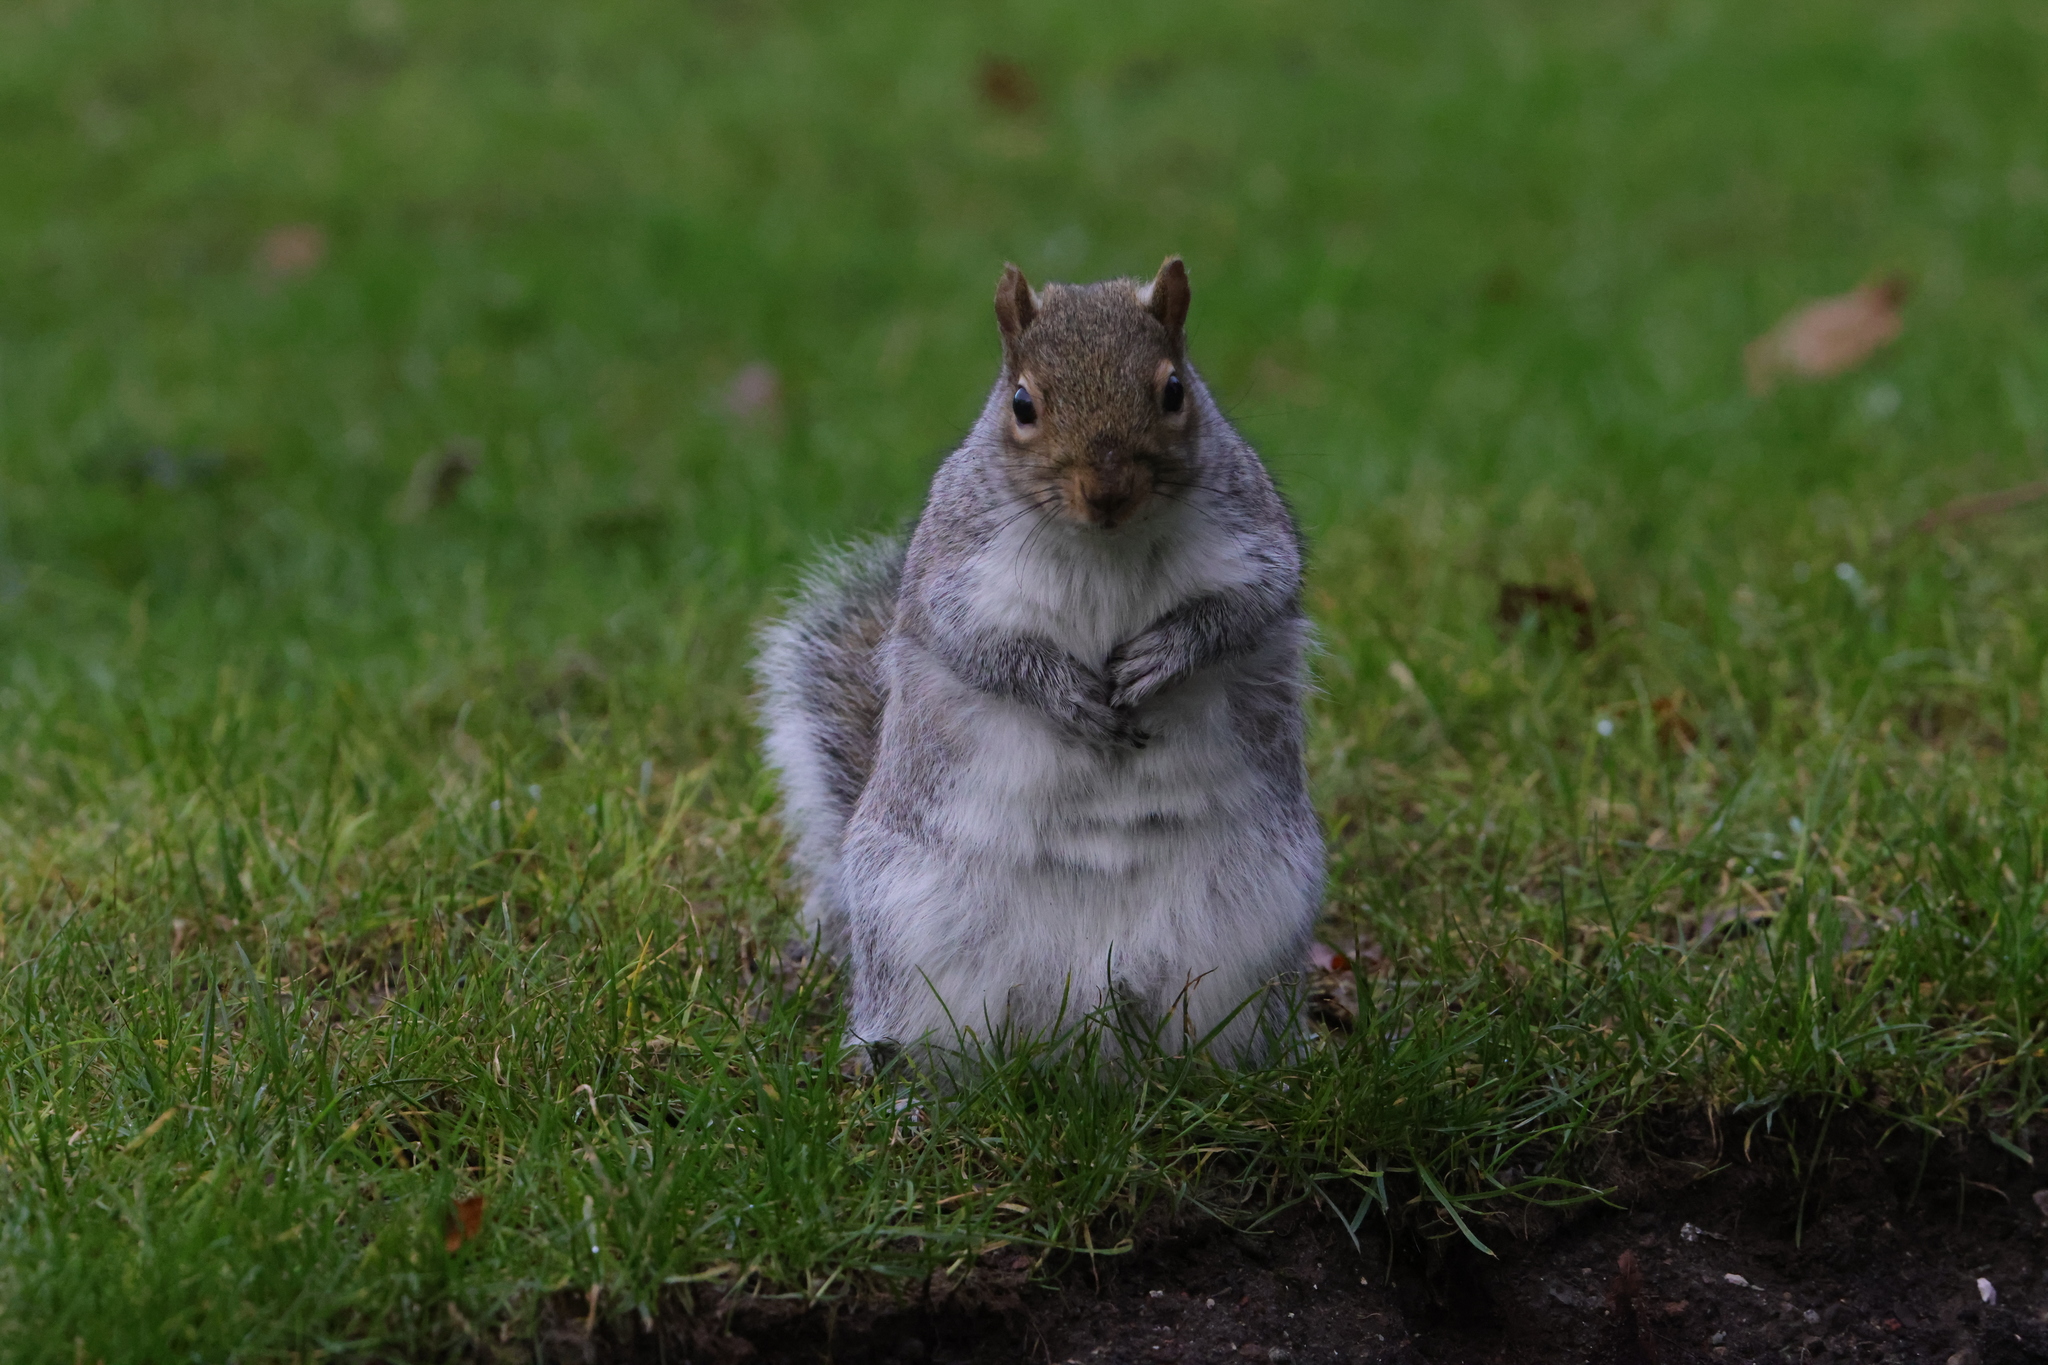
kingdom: Animalia
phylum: Chordata
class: Mammalia
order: Rodentia
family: Sciuridae
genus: Sciurus
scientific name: Sciurus carolinensis
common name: Eastern gray squirrel
